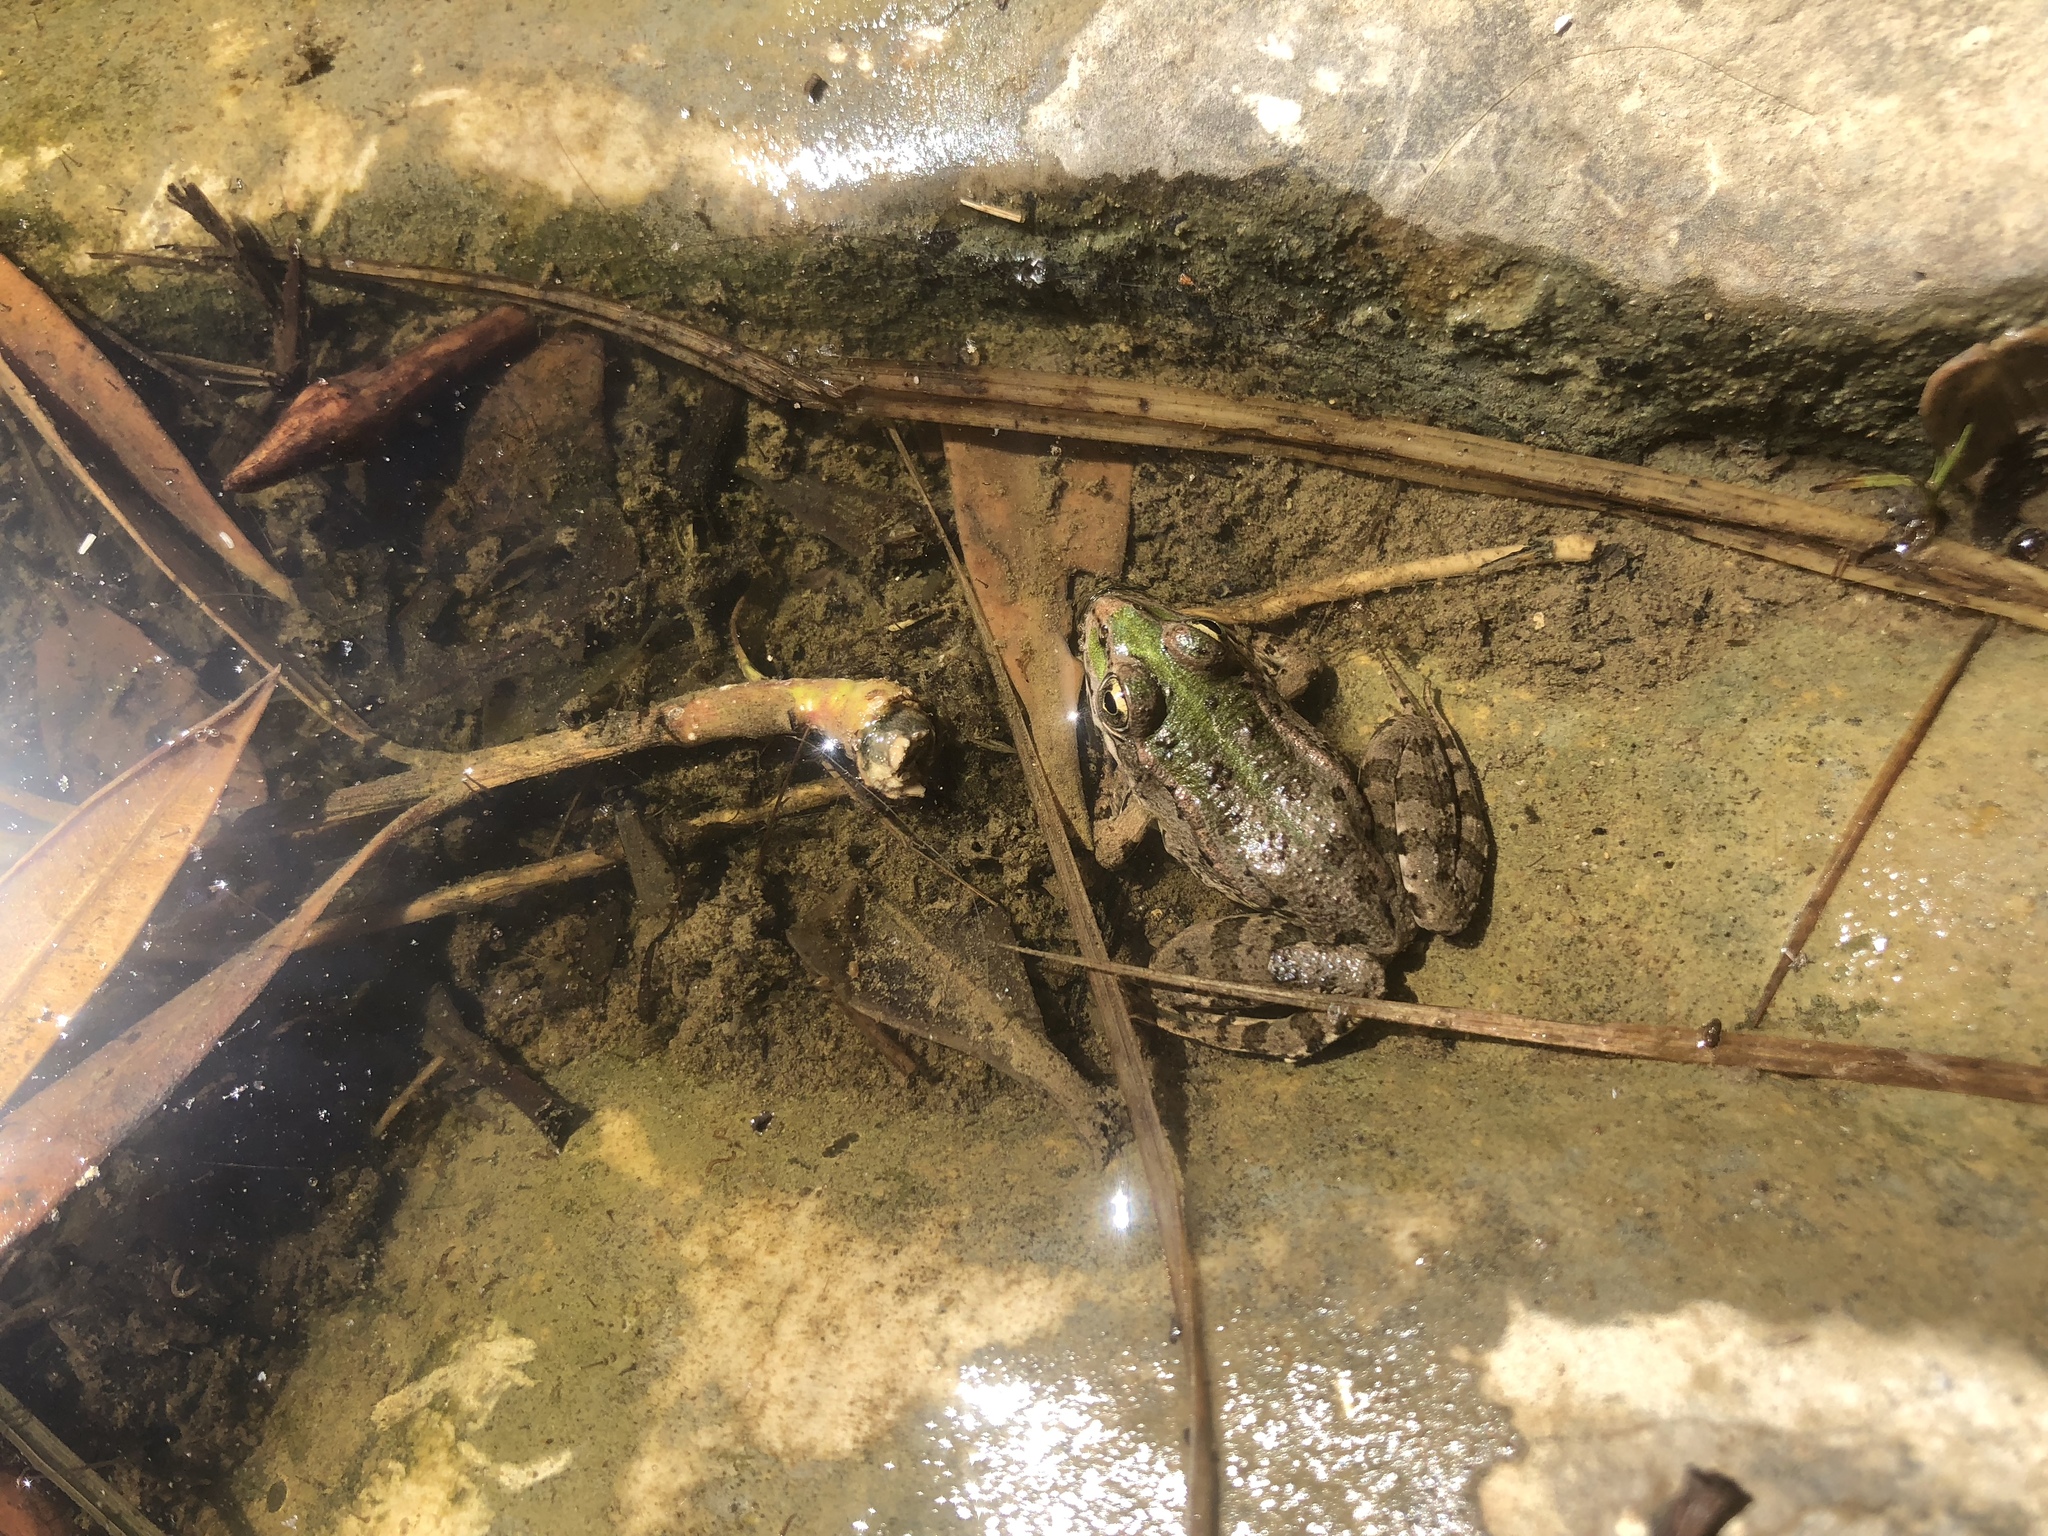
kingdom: Animalia
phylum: Chordata
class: Amphibia
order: Anura
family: Ranidae
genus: Pelophylax
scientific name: Pelophylax ridibundus
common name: Marsh frog
